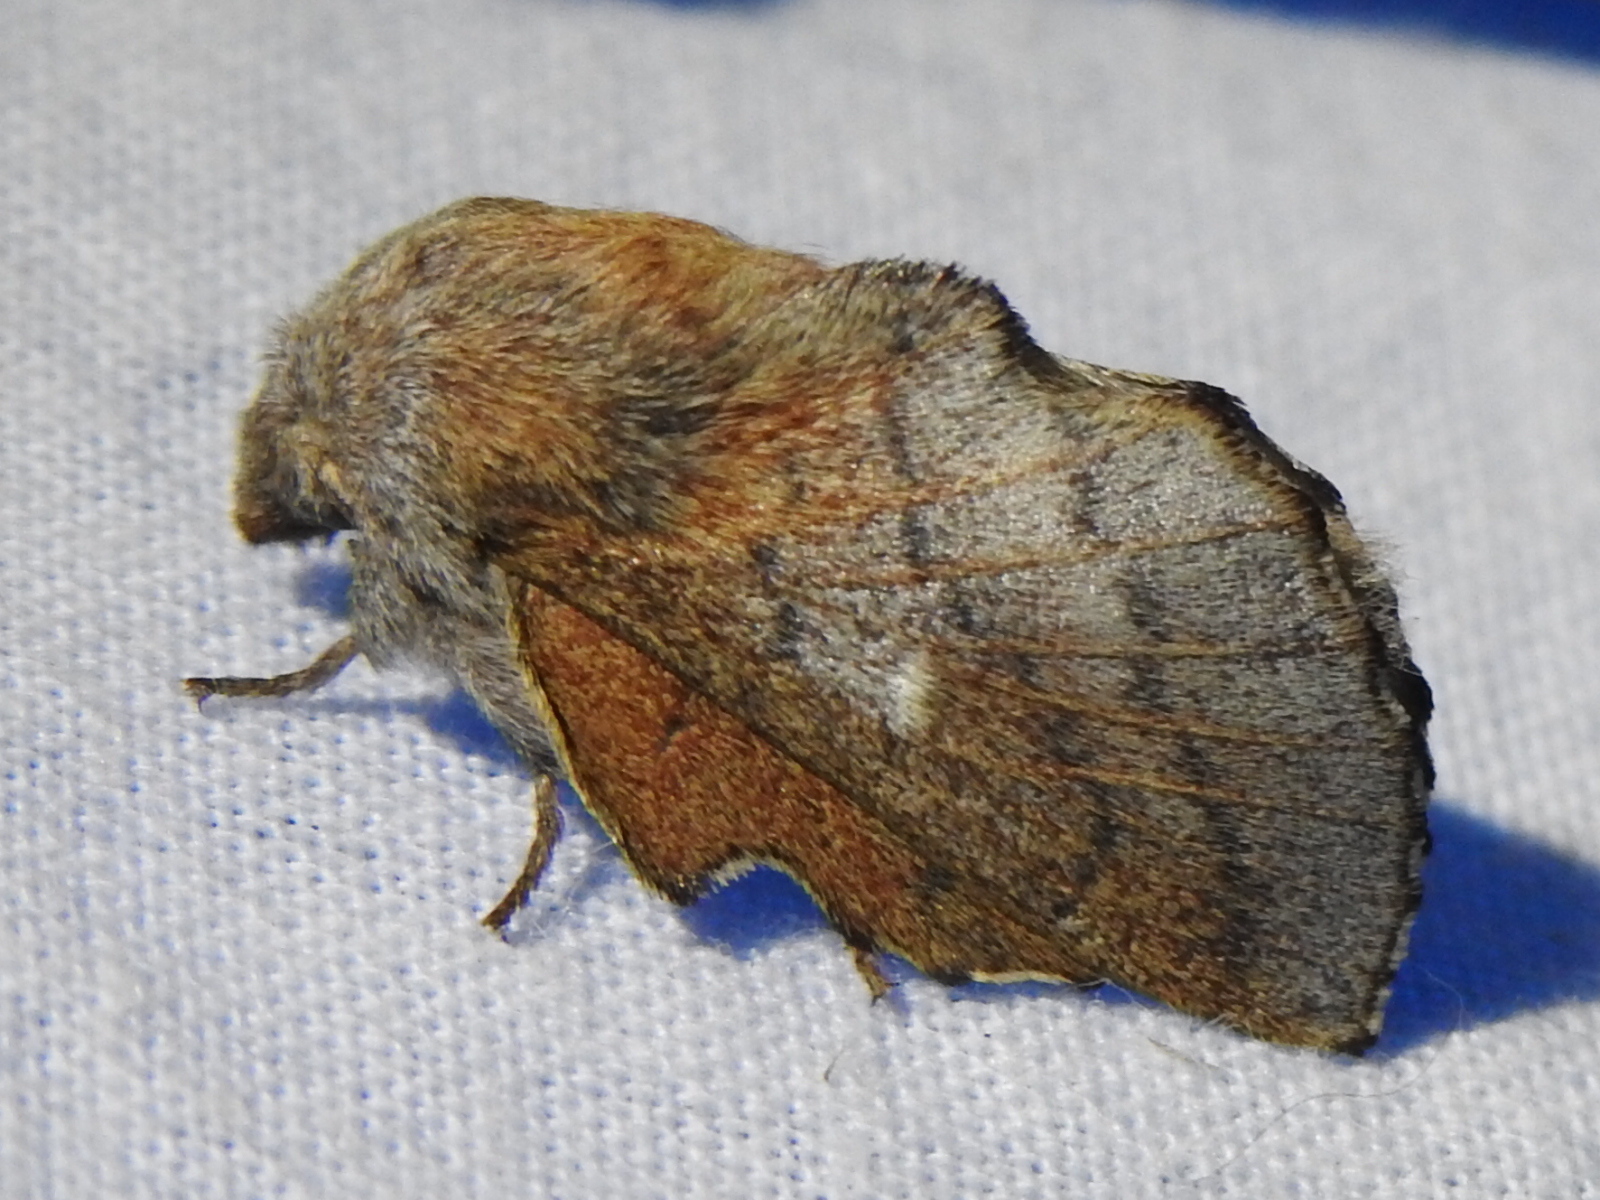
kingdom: Animalia
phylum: Arthropoda
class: Insecta
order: Lepidoptera
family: Lasiocampidae
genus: Phyllodesma
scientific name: Phyllodesma americana
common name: American lappet moth
